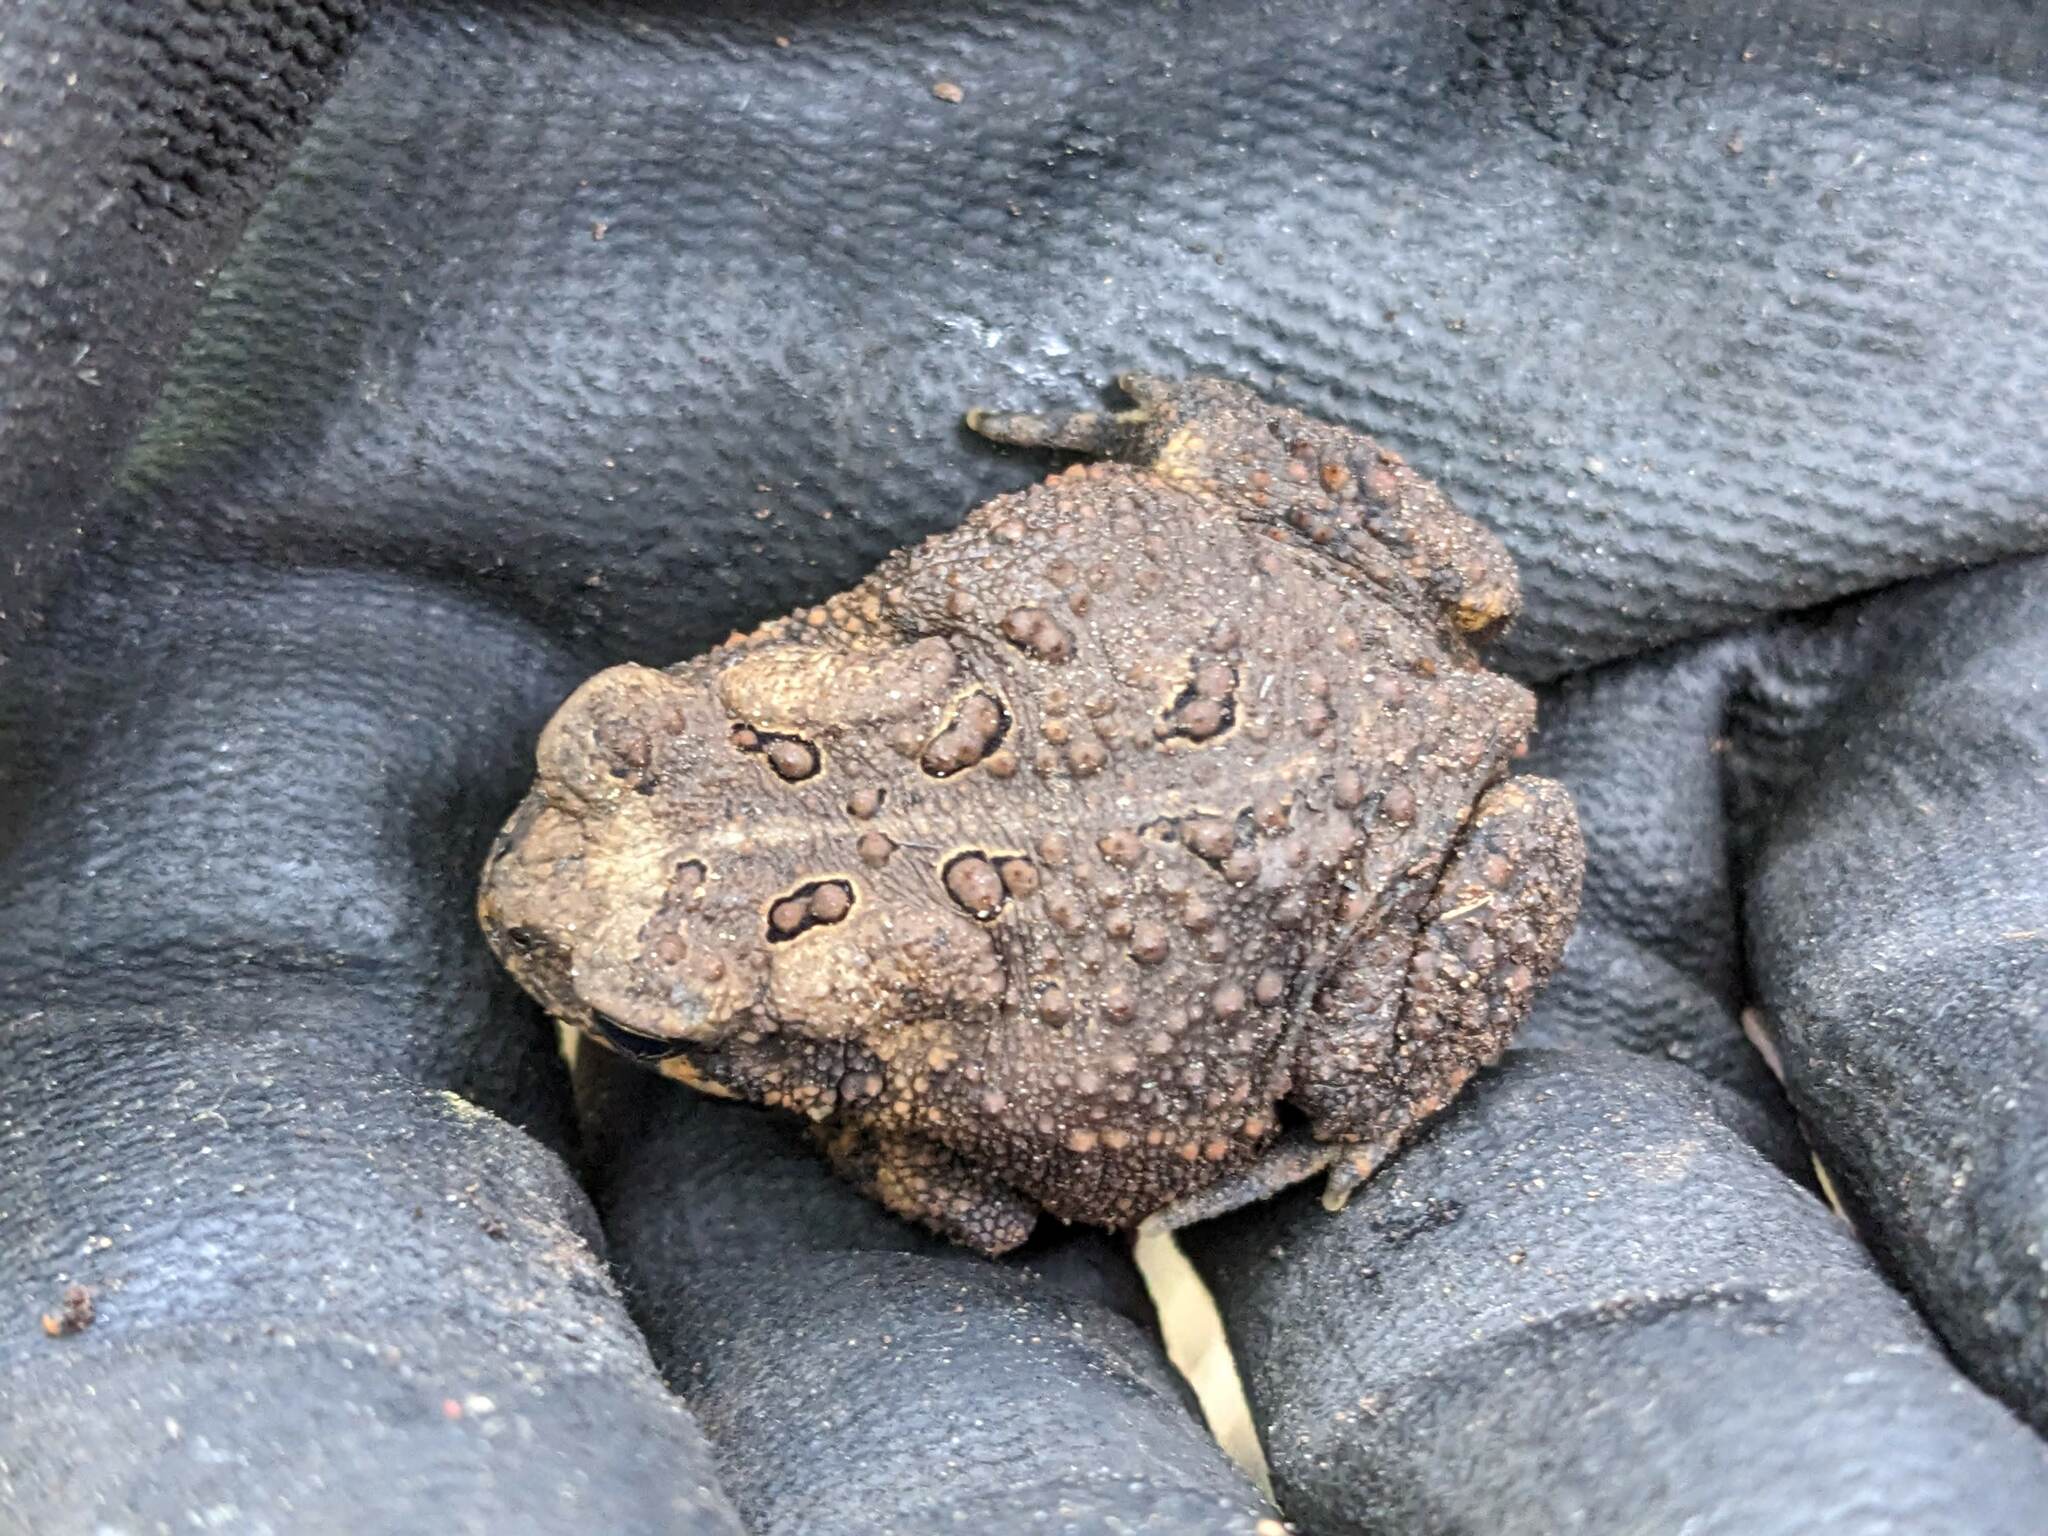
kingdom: Animalia
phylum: Chordata
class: Amphibia
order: Anura
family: Bufonidae
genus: Anaxyrus
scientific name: Anaxyrus americanus
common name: American toad
